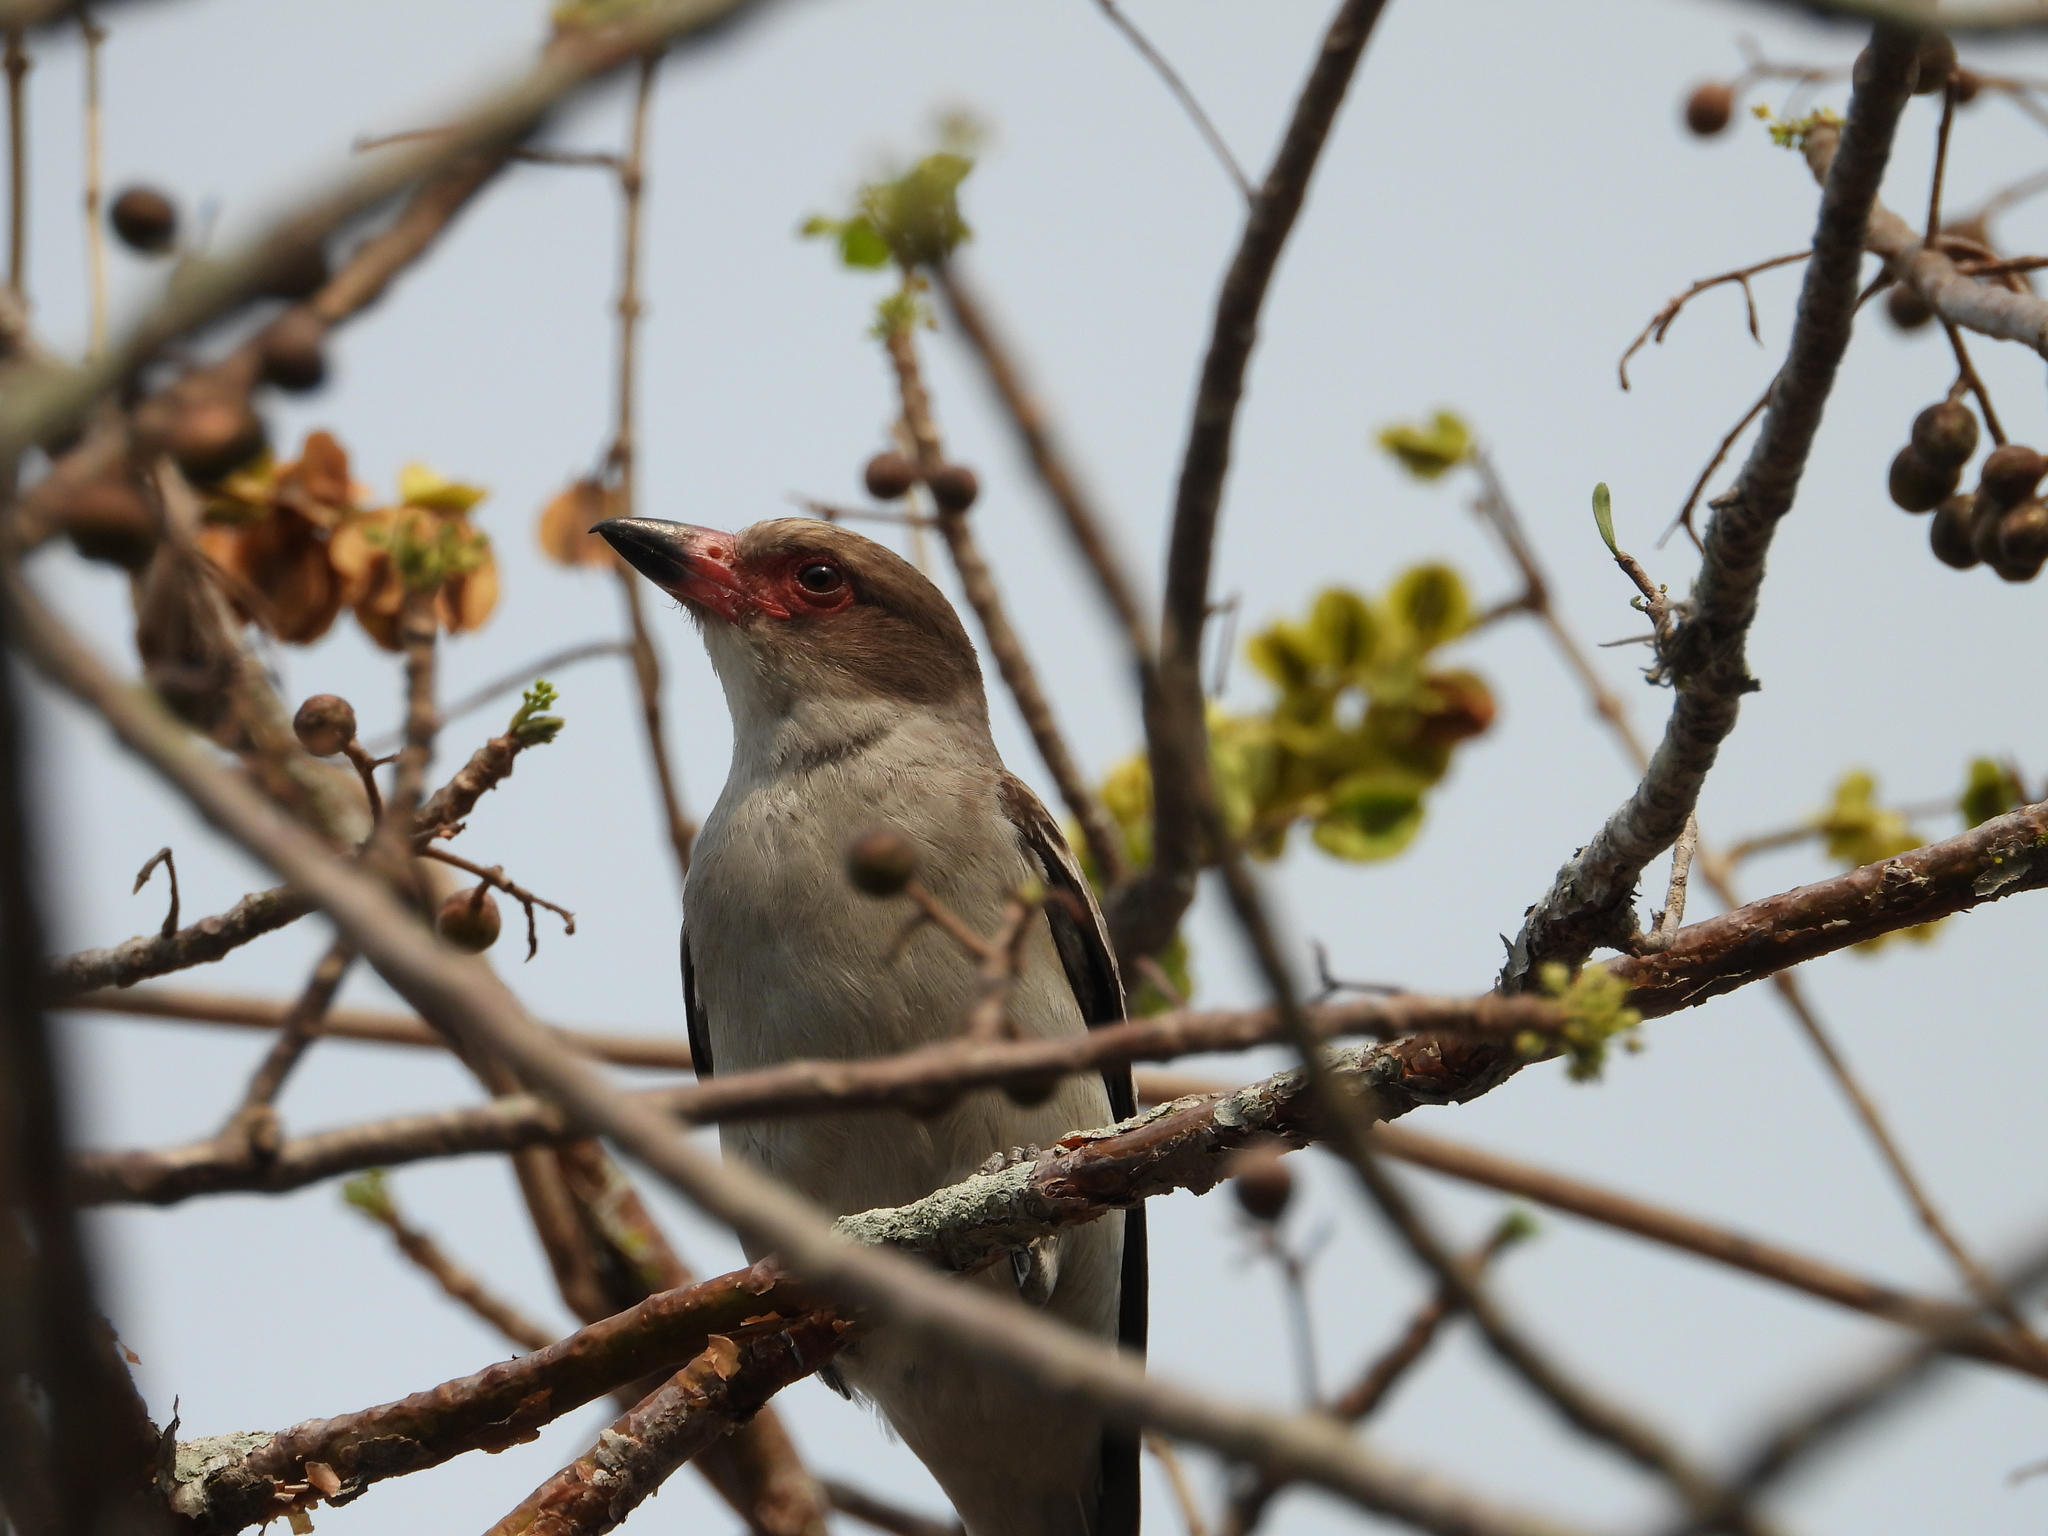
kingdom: Animalia
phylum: Chordata
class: Aves
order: Passeriformes
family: Cotingidae
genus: Tityra
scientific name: Tityra semifasciata
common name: Masked tityra
